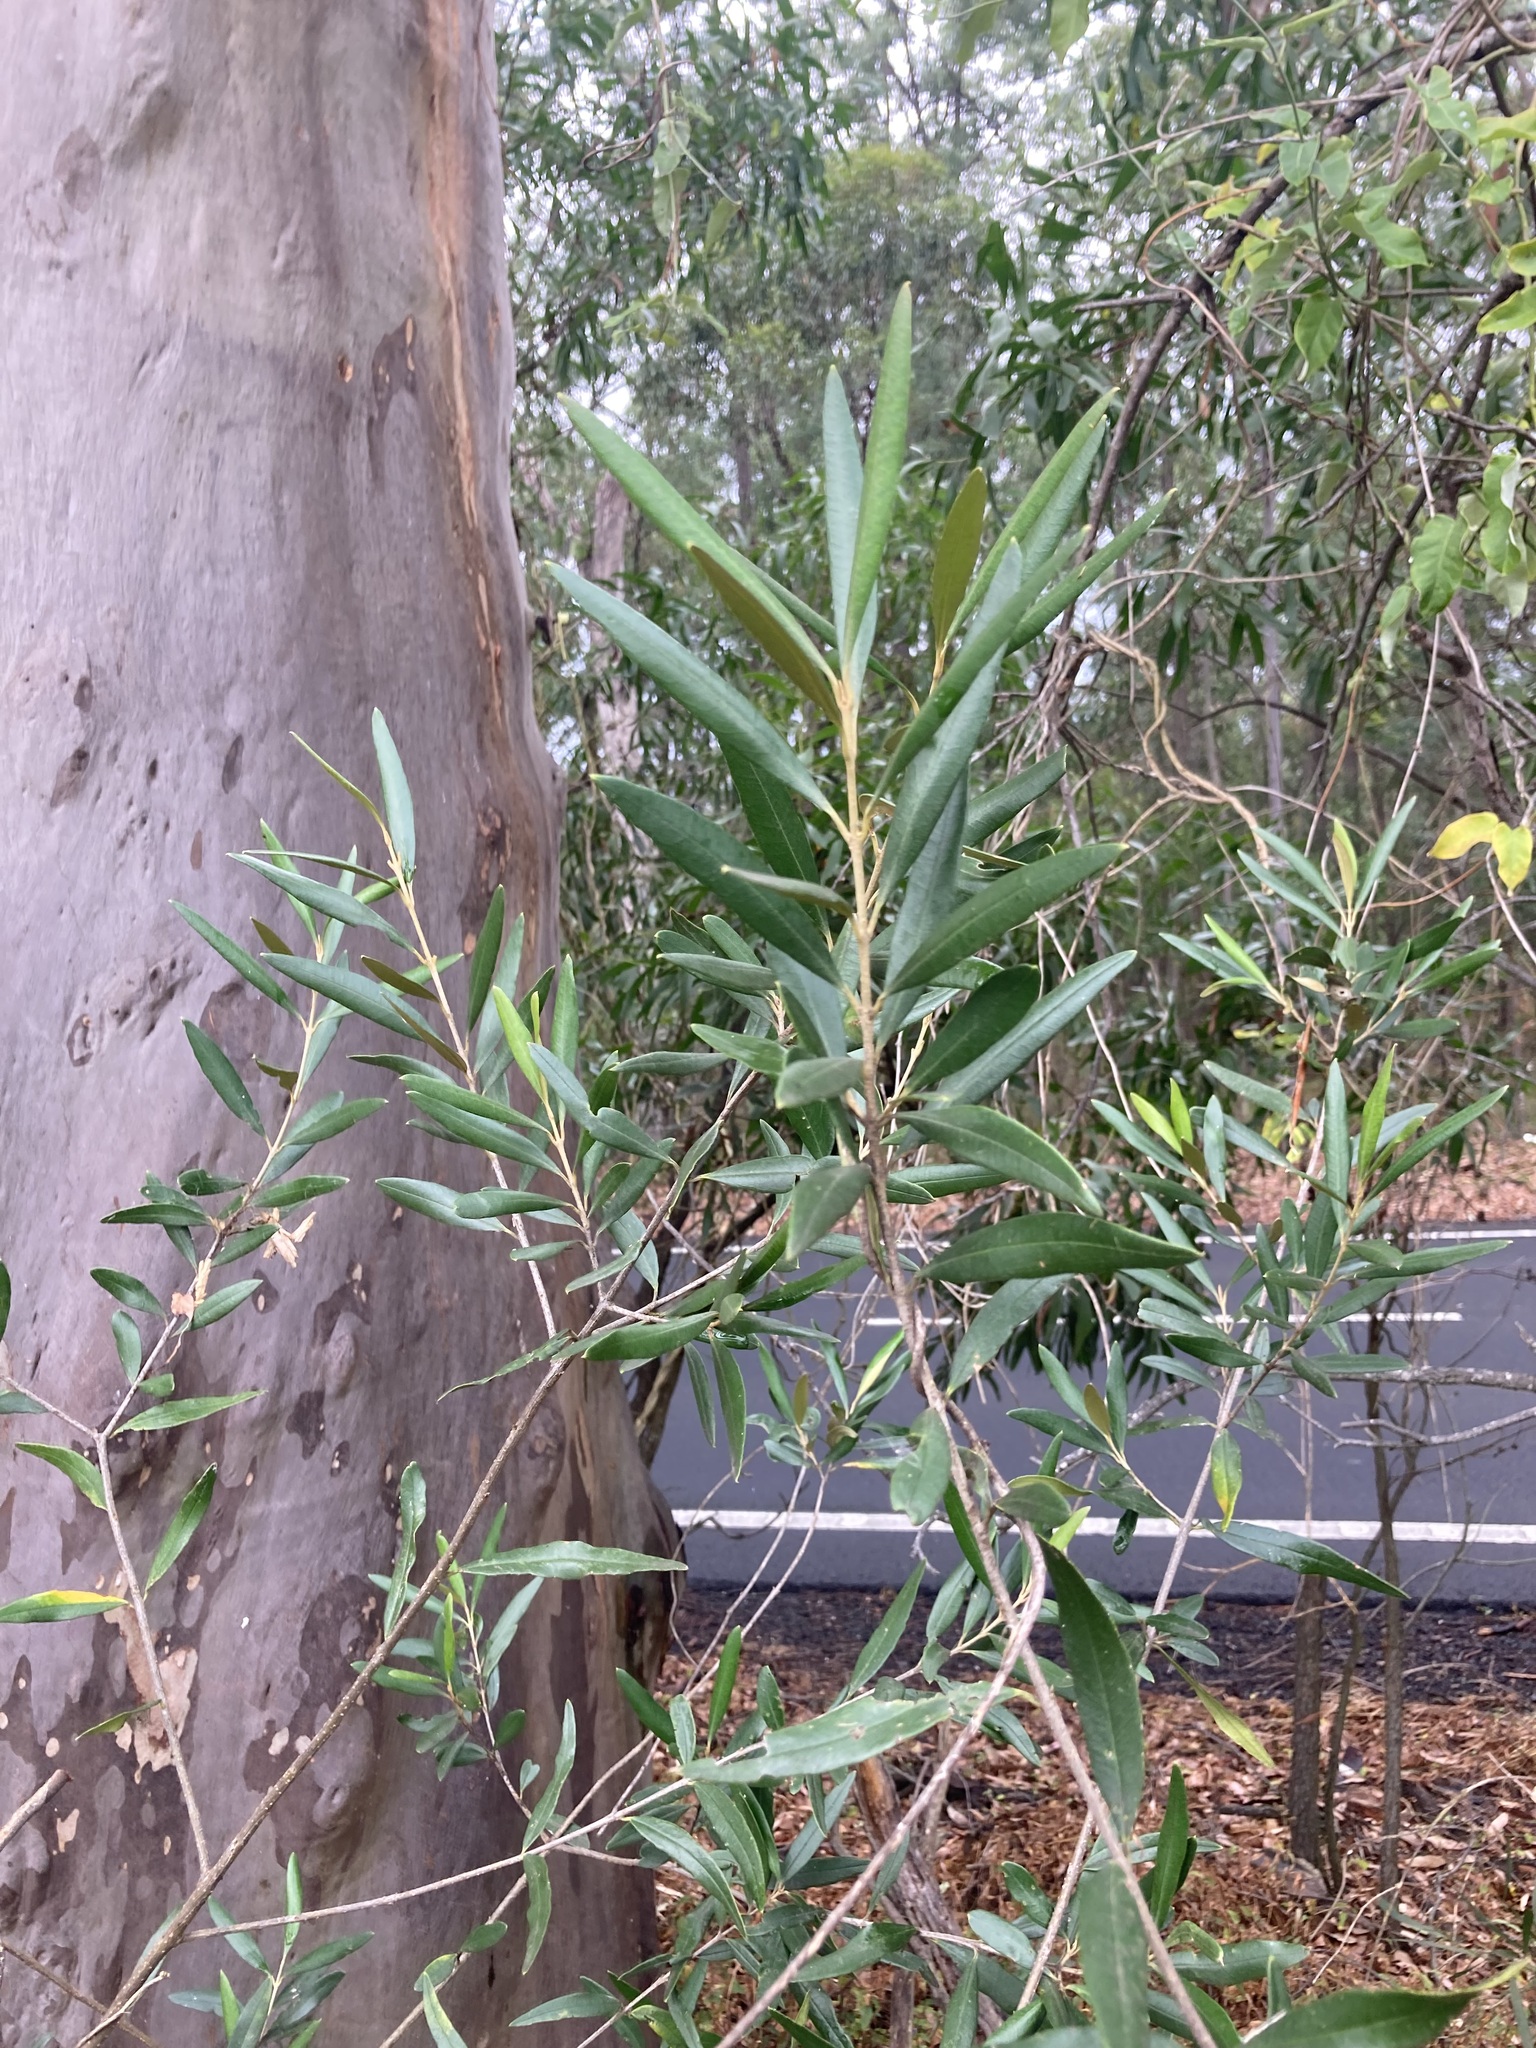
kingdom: Plantae
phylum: Tracheophyta
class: Magnoliopsida
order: Lamiales
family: Oleaceae
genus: Olea
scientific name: Olea europaea
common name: Olive
